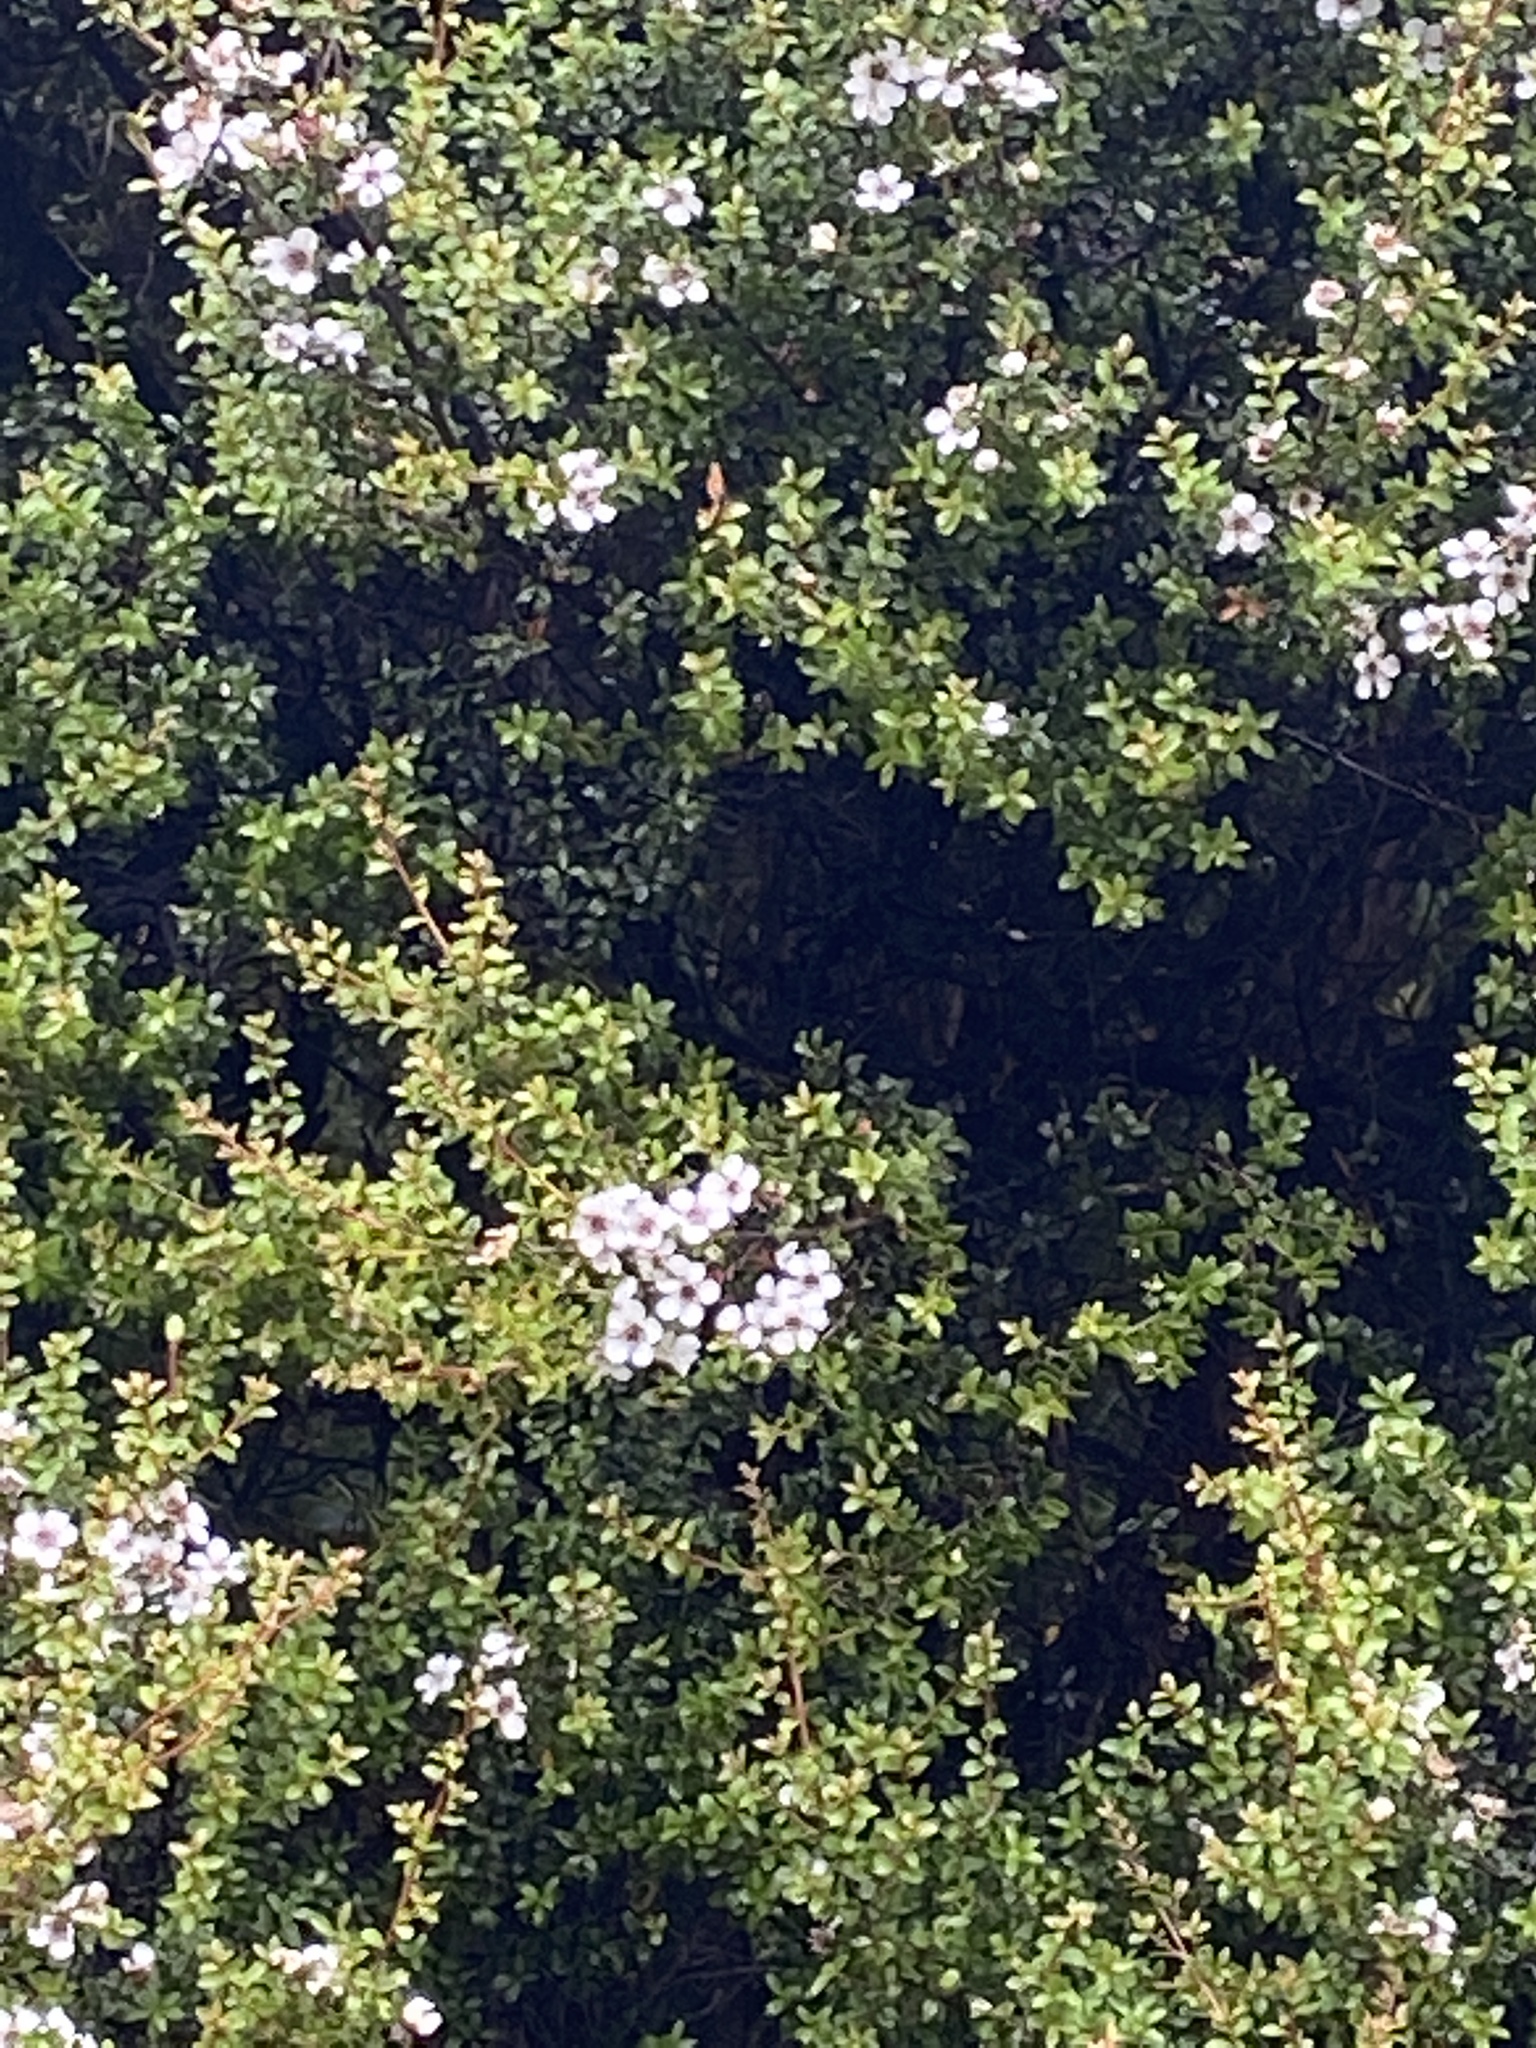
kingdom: Plantae
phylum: Tracheophyta
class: Magnoliopsida
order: Myrtales
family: Myrtaceae
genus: Leptospermum
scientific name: Leptospermum scoparium
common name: Broom tea-tree
